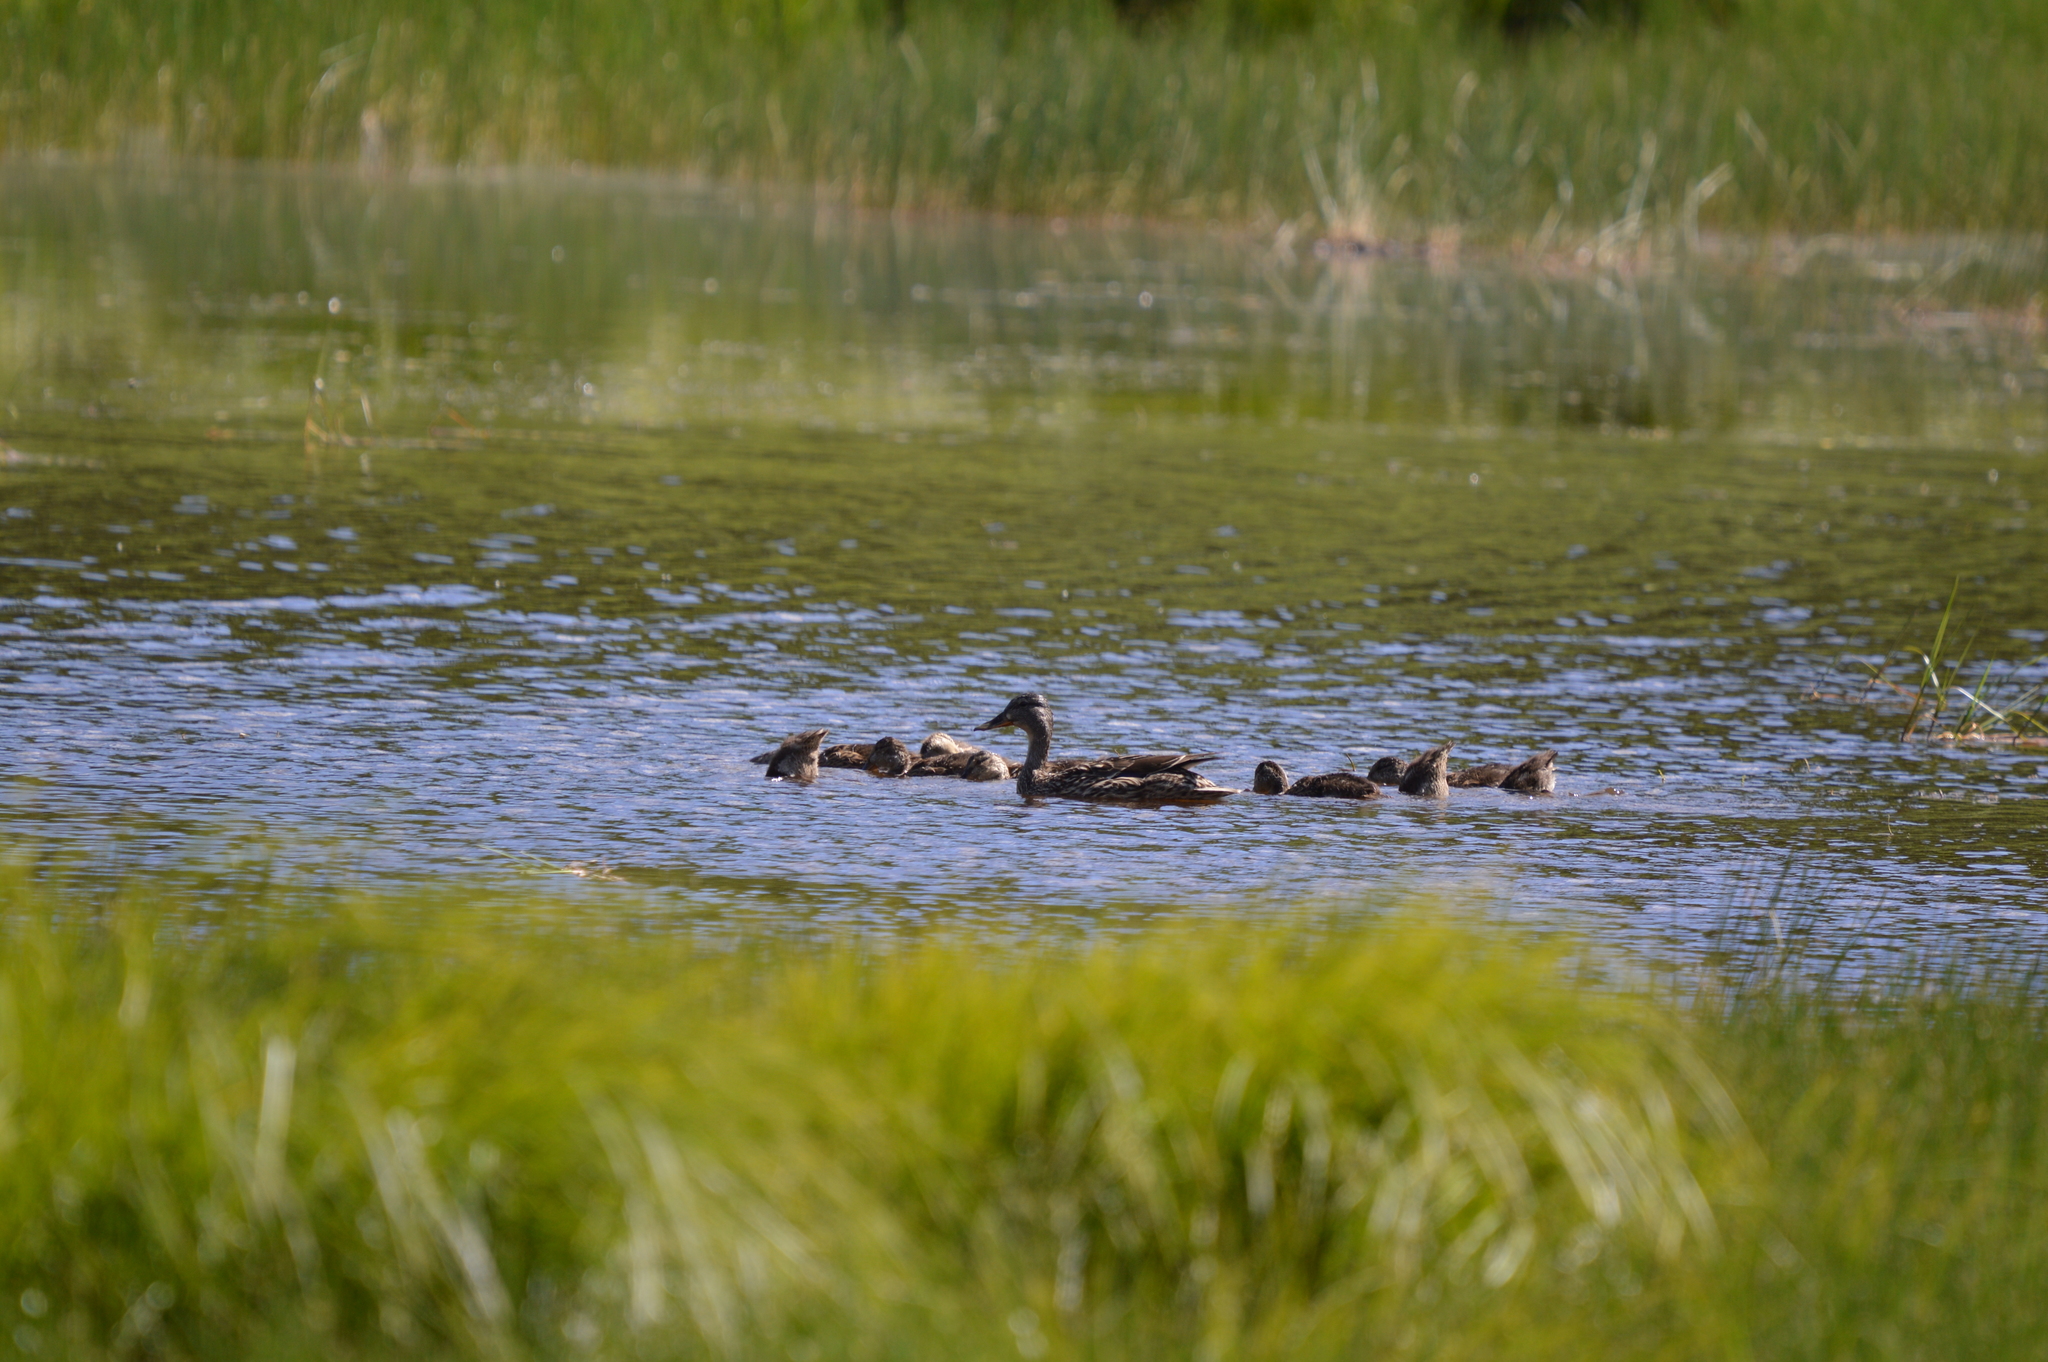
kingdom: Animalia
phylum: Chordata
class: Aves
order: Anseriformes
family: Anatidae
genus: Anas
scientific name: Anas platyrhynchos
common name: Mallard
